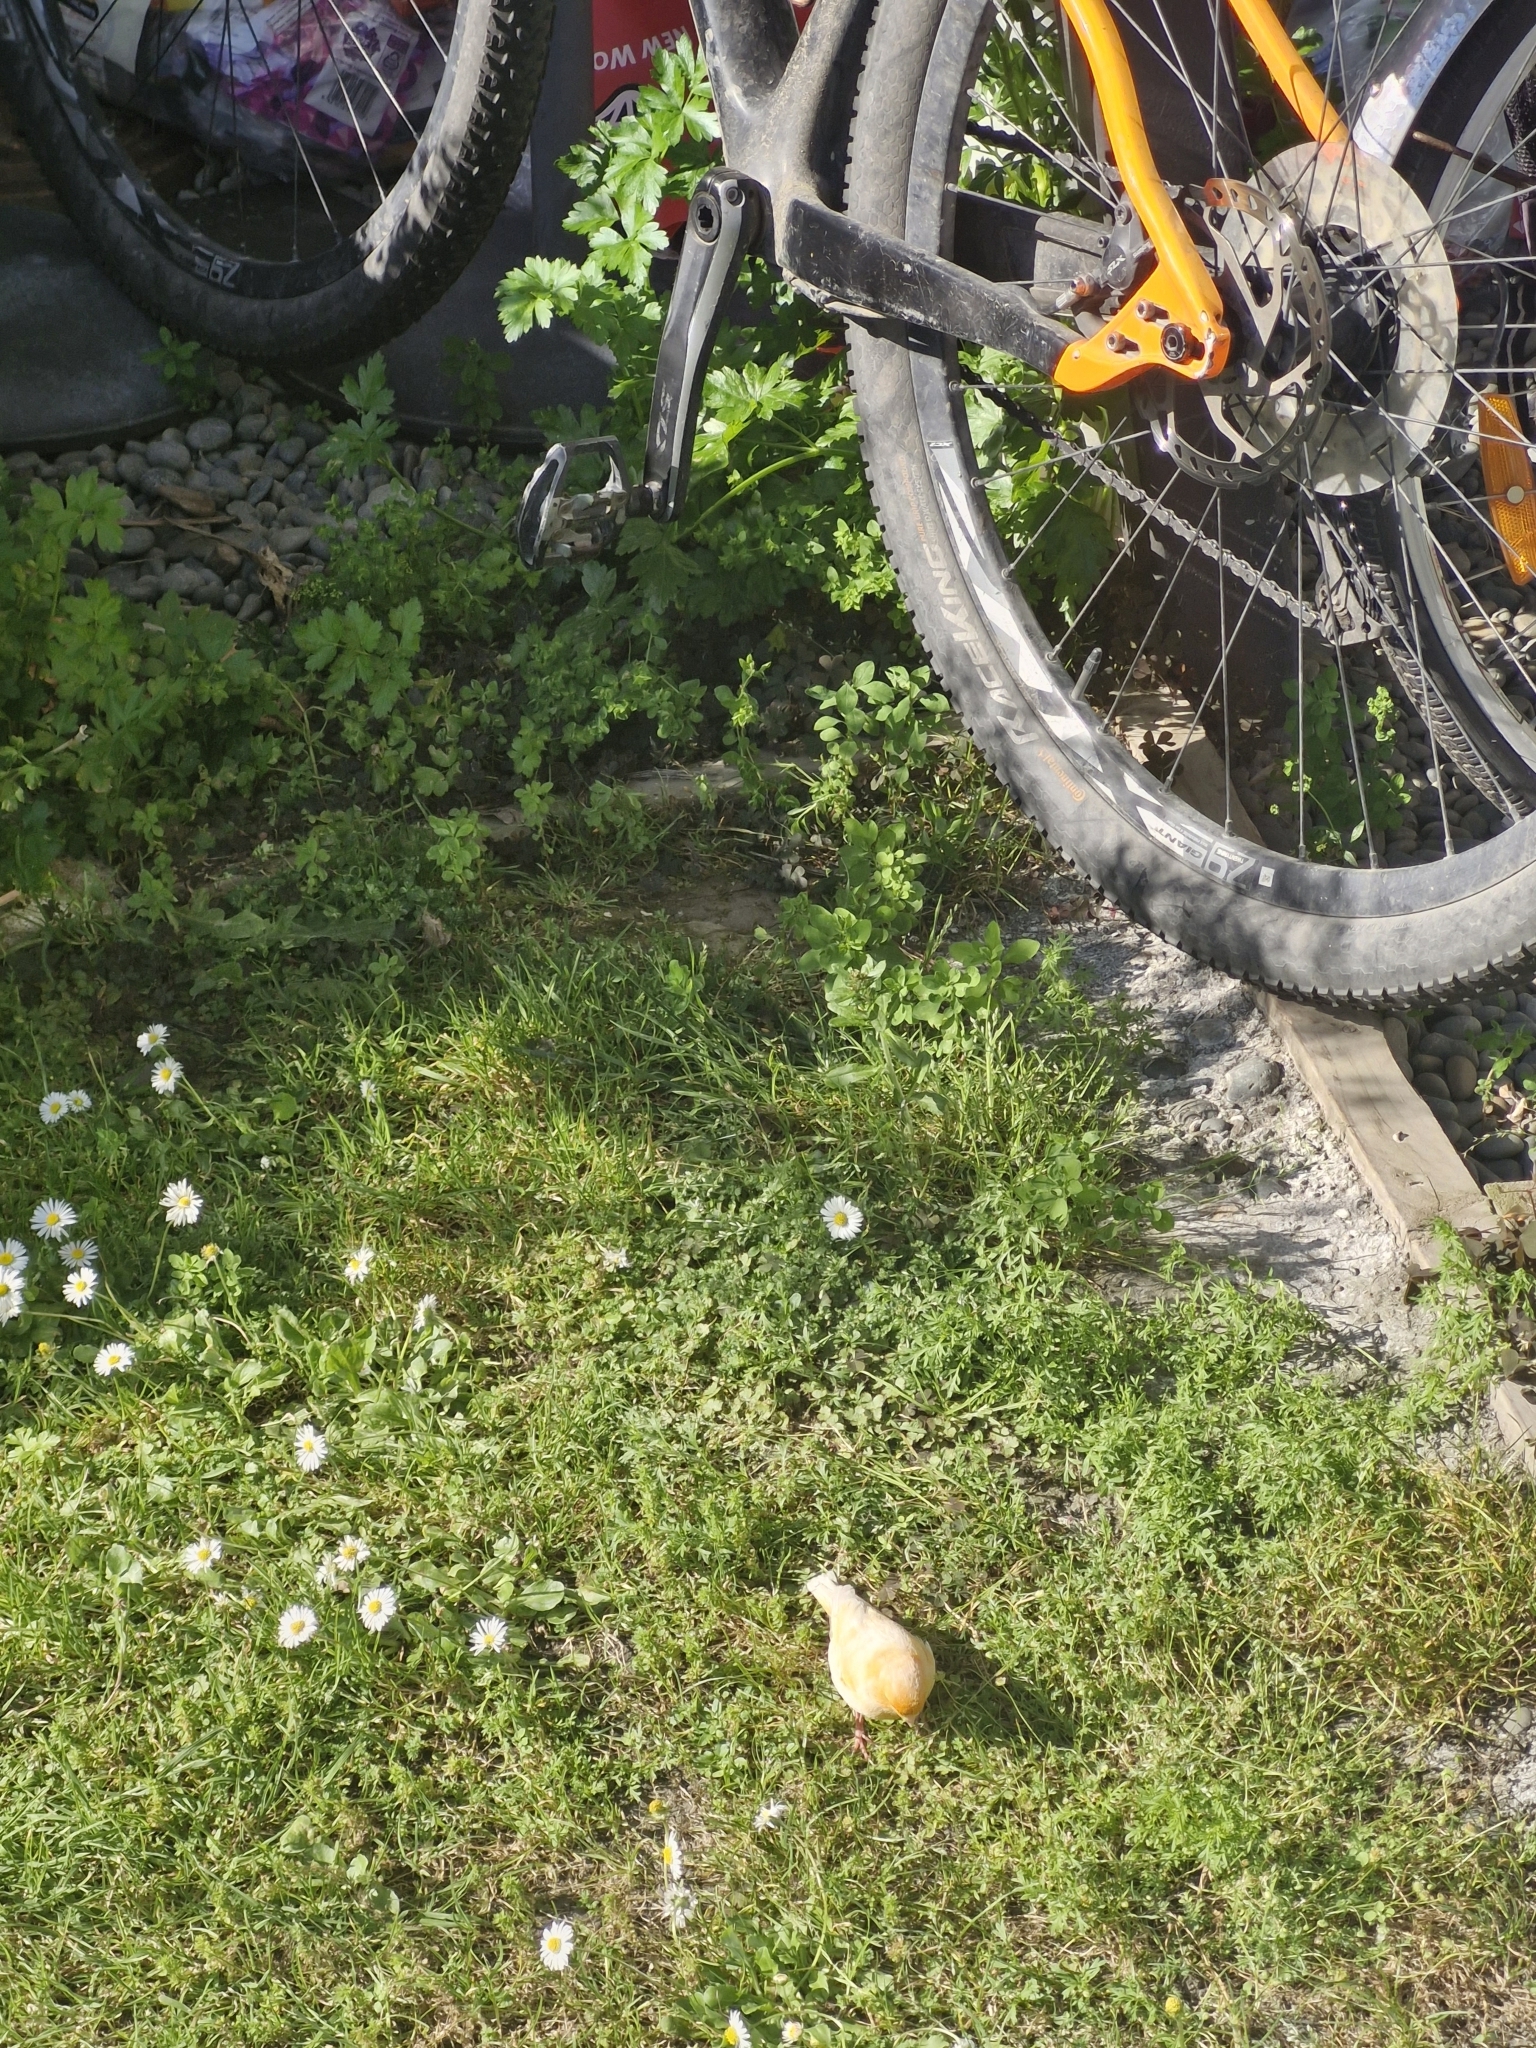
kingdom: Animalia
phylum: Chordata
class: Aves
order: Passeriformes
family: Fringillidae
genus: Serinus
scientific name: Serinus canaria
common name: Atlantic canary
